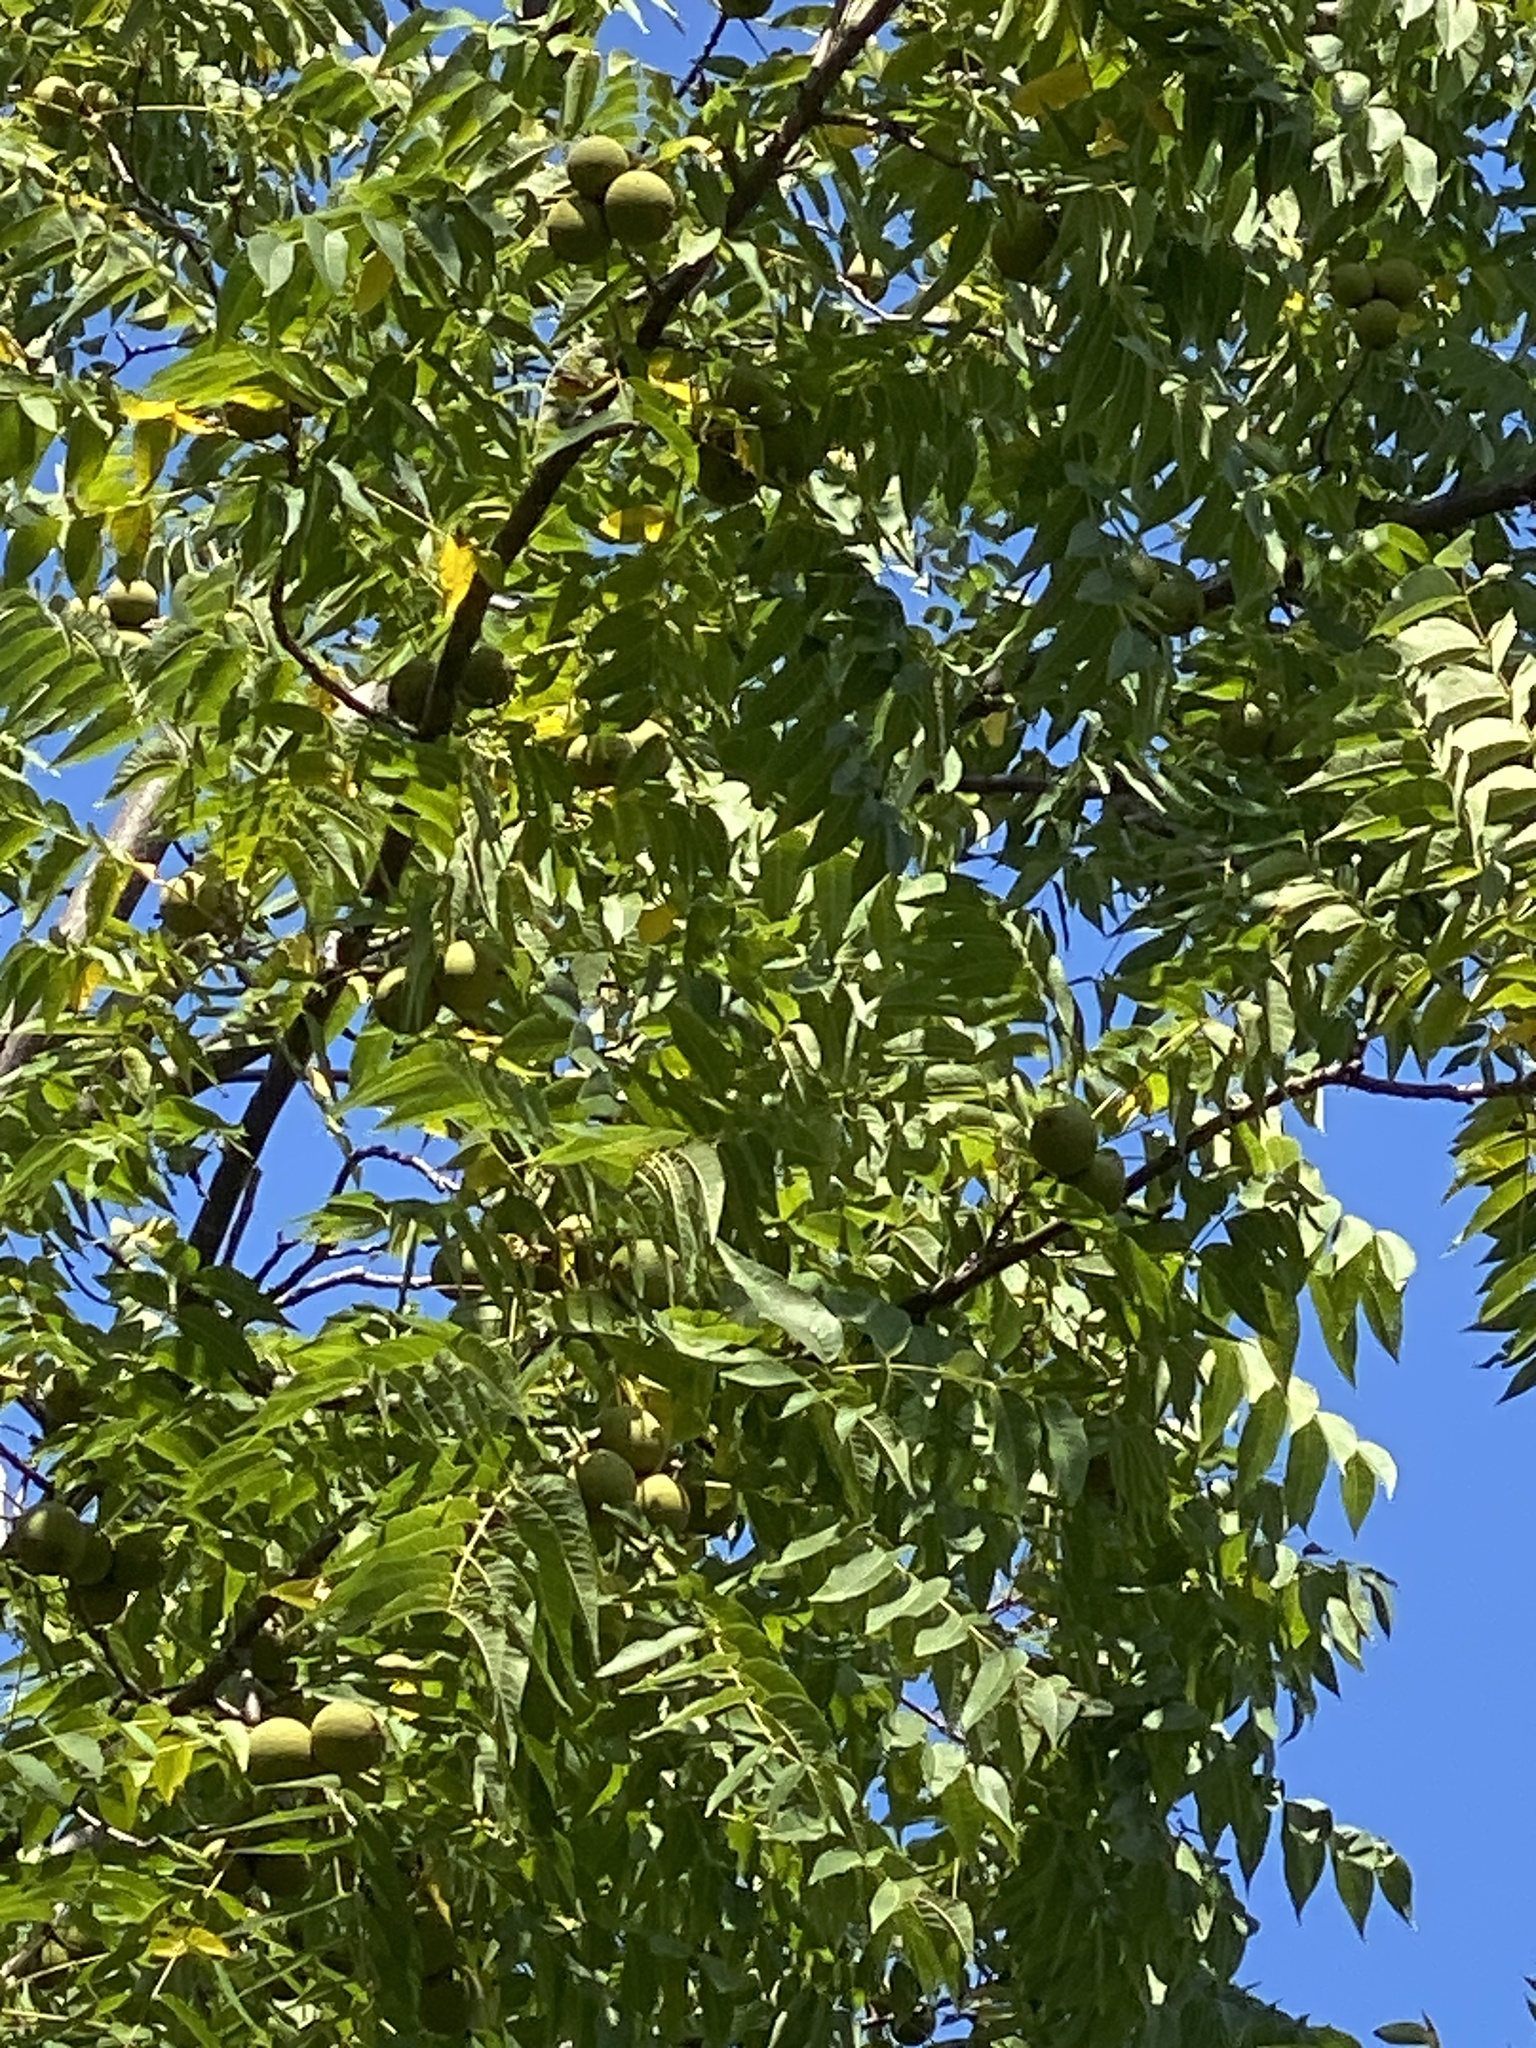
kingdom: Plantae
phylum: Tracheophyta
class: Magnoliopsida
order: Fagales
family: Juglandaceae
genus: Juglans
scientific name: Juglans nigra
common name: Black walnut
